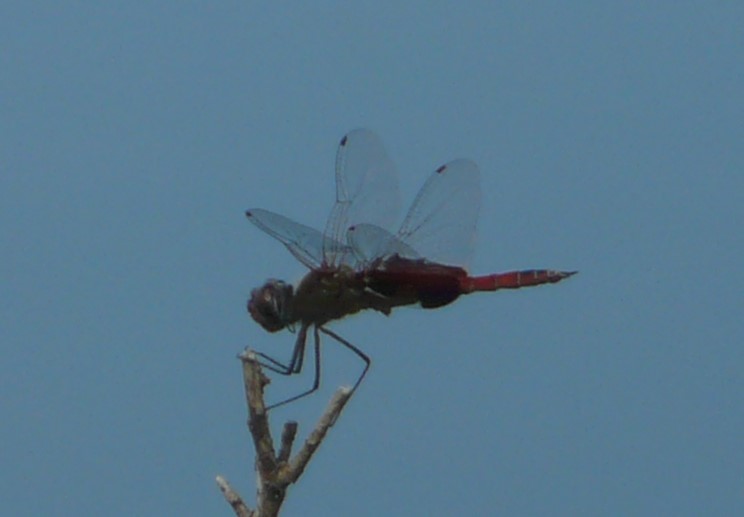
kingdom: Animalia
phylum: Arthropoda
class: Insecta
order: Odonata
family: Libellulidae
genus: Tramea
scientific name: Tramea onusta
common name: Red saddlebags
